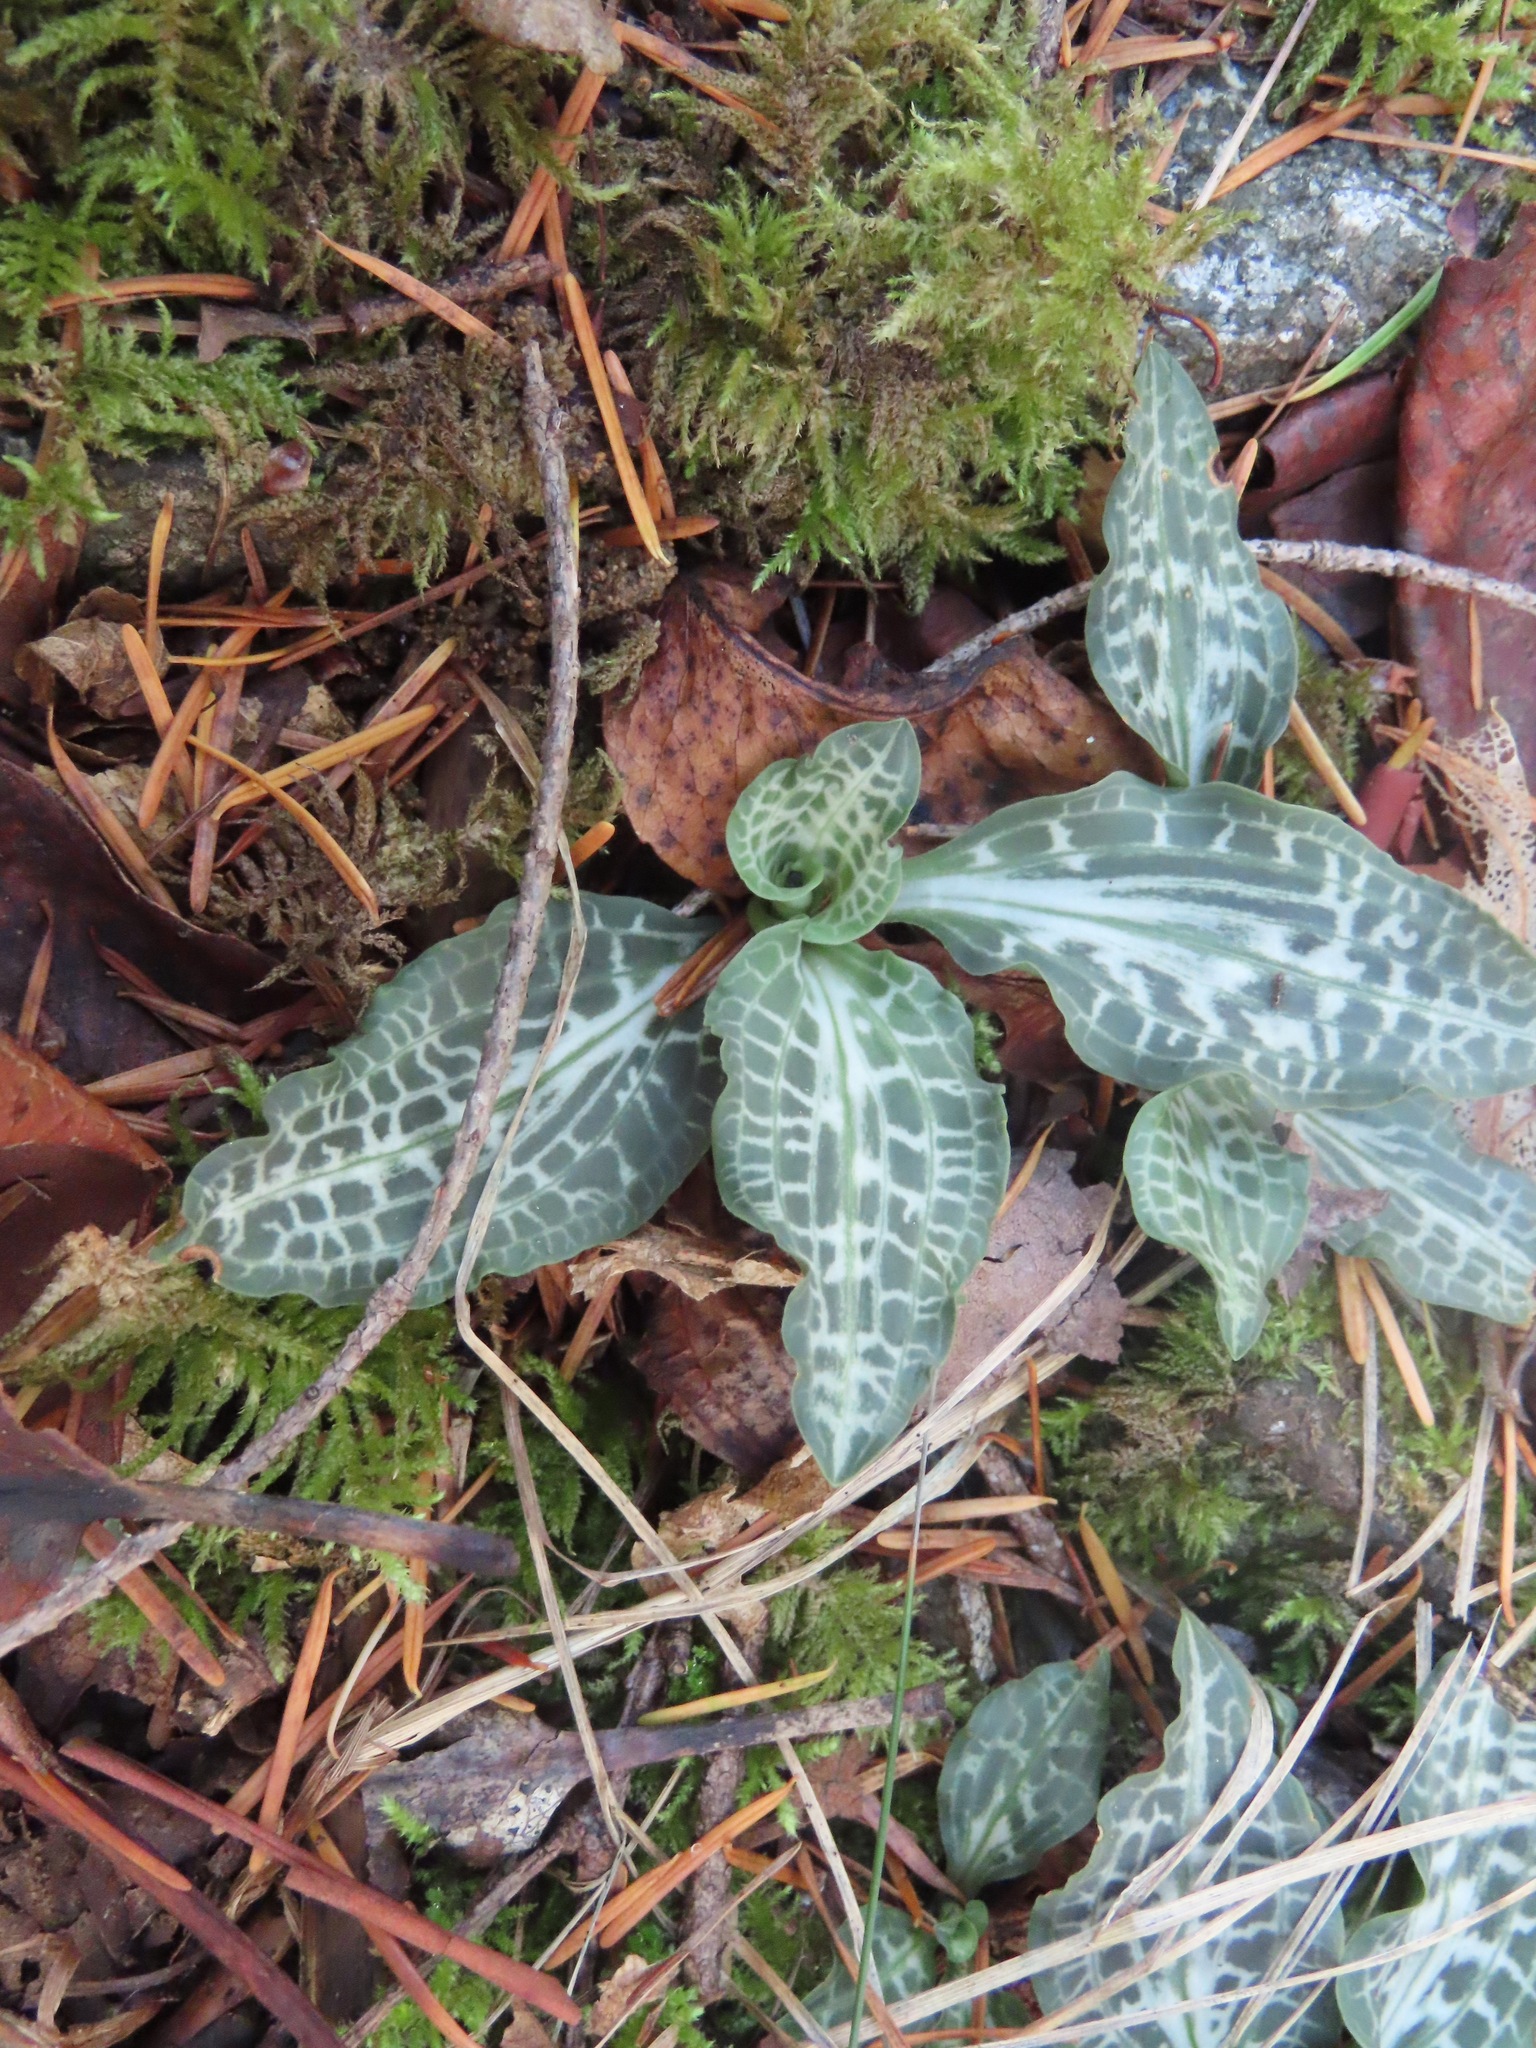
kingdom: Plantae
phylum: Tracheophyta
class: Liliopsida
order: Asparagales
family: Orchidaceae
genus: Goodyera
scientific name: Goodyera oblongifolia
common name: Giant rattlesnake-plantain
